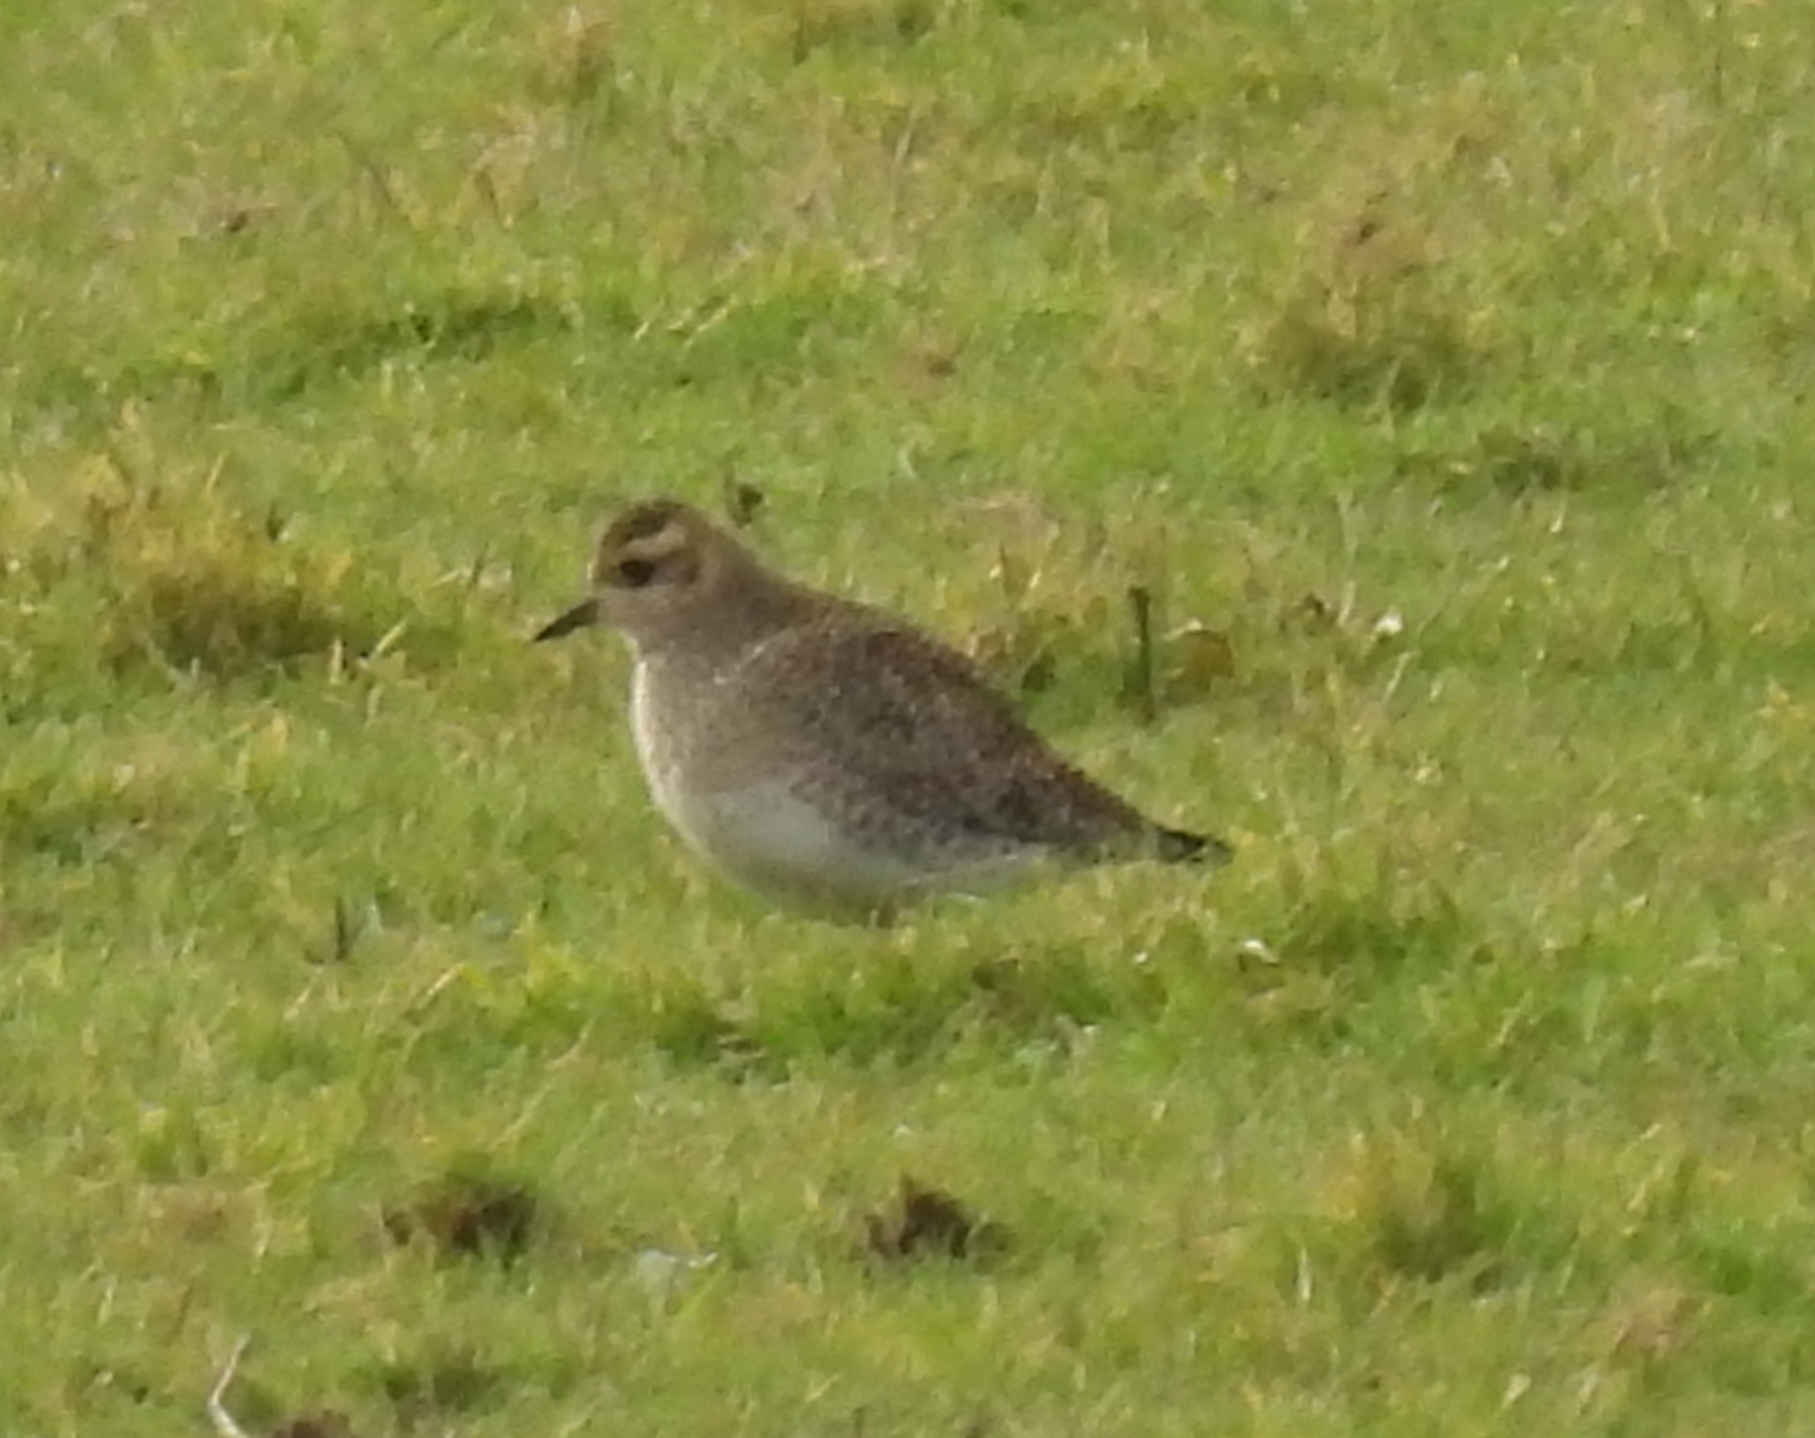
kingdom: Animalia
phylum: Chordata
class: Aves
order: Charadriiformes
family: Charadriidae
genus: Pluvialis
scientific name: Pluvialis apricaria
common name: European golden plover
